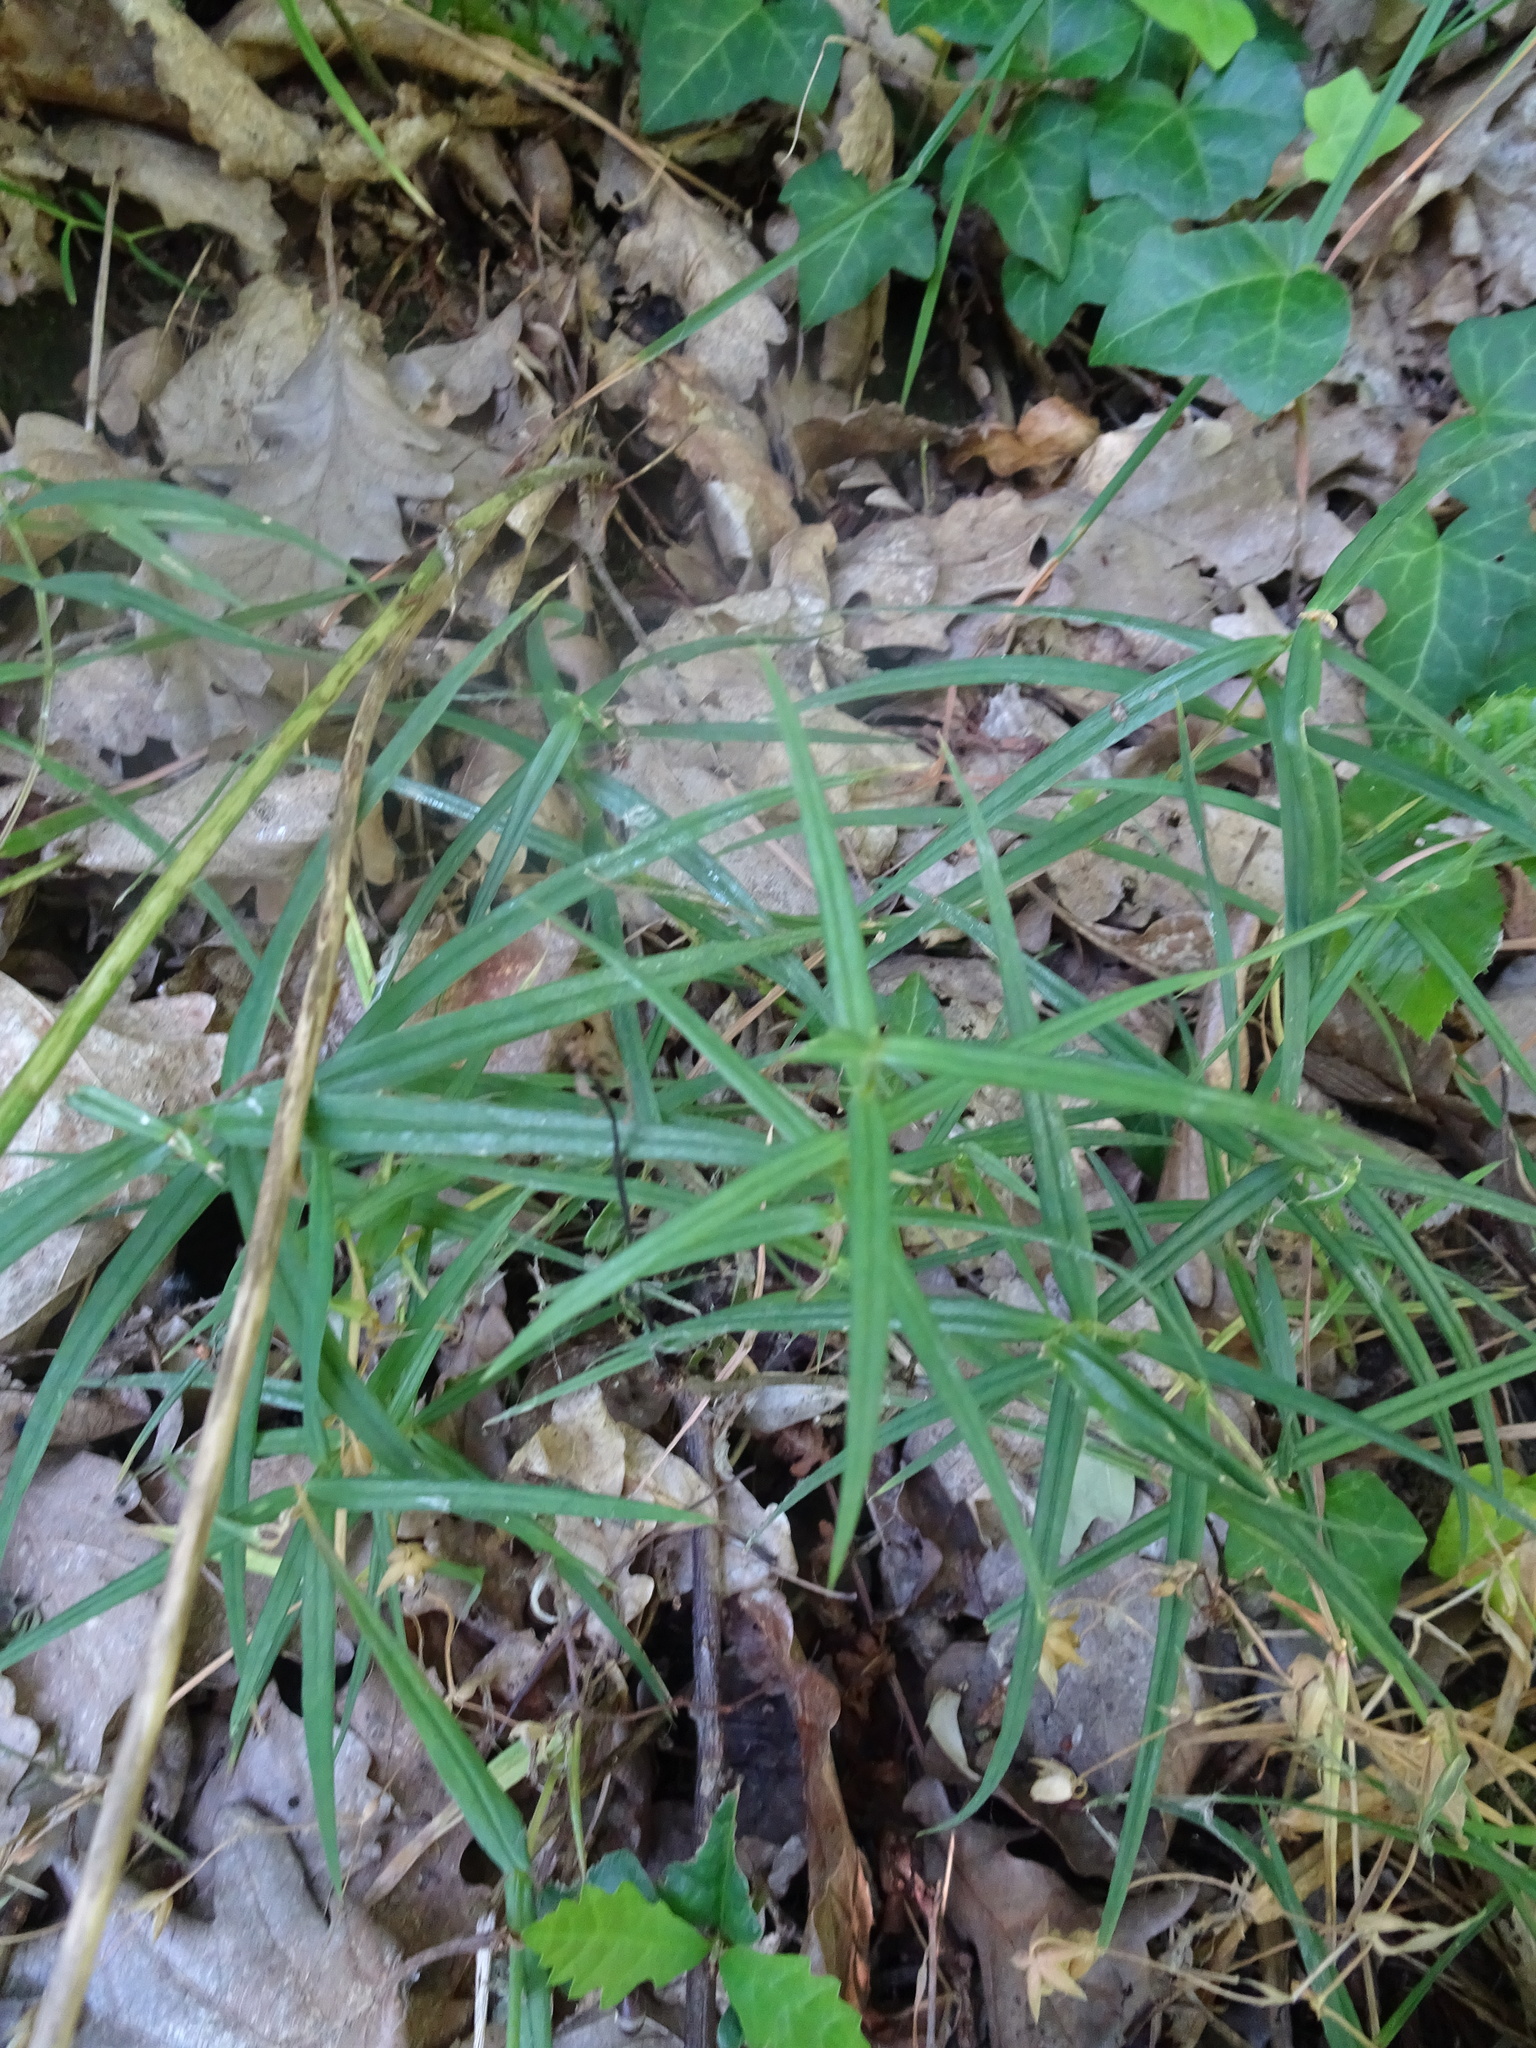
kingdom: Plantae
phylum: Tracheophyta
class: Magnoliopsida
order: Caryophyllales
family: Caryophyllaceae
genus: Rabelera
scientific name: Rabelera holostea
